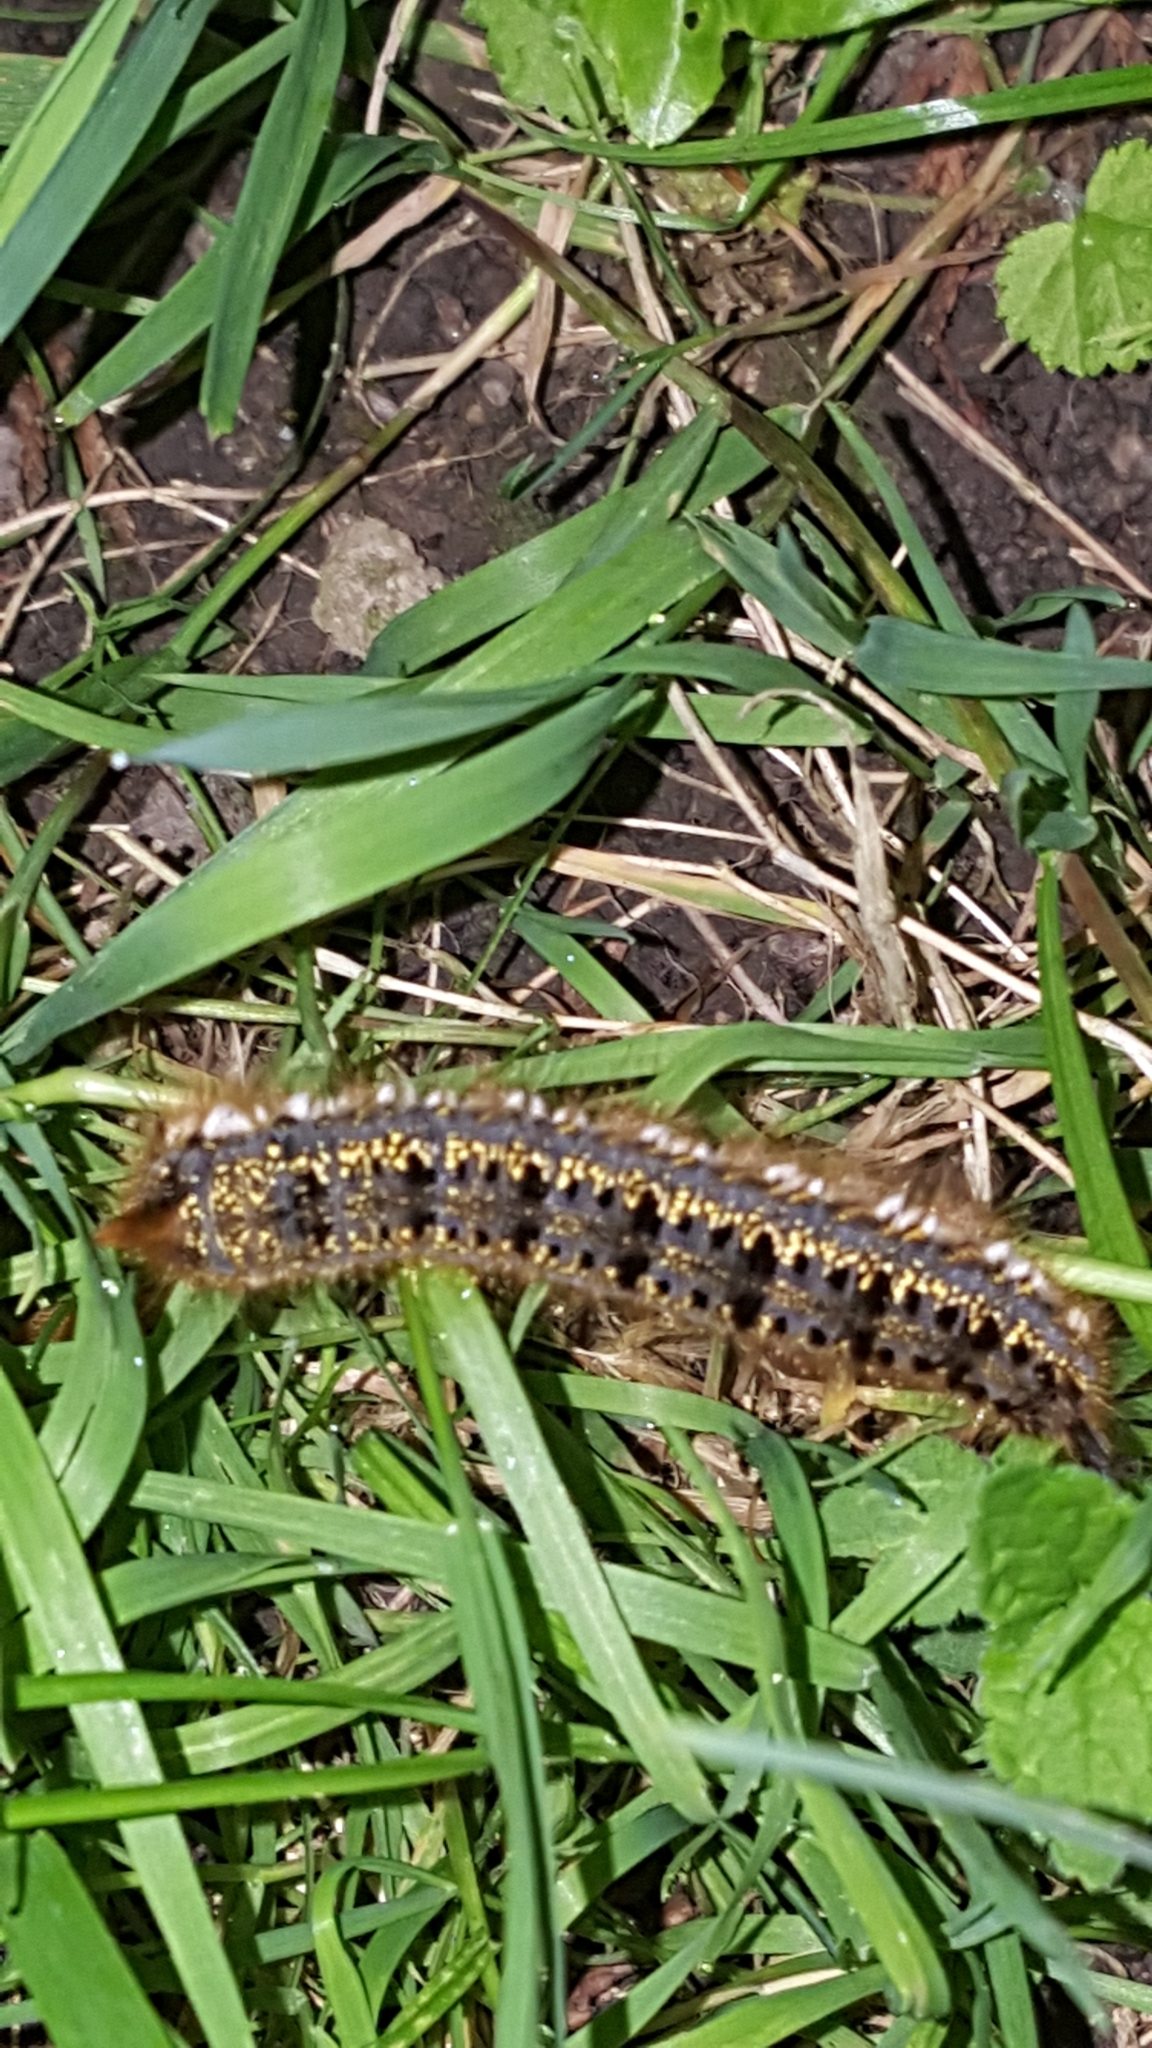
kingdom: Animalia
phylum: Arthropoda
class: Insecta
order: Lepidoptera
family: Lasiocampidae
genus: Euthrix
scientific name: Euthrix potatoria
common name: Drinker
